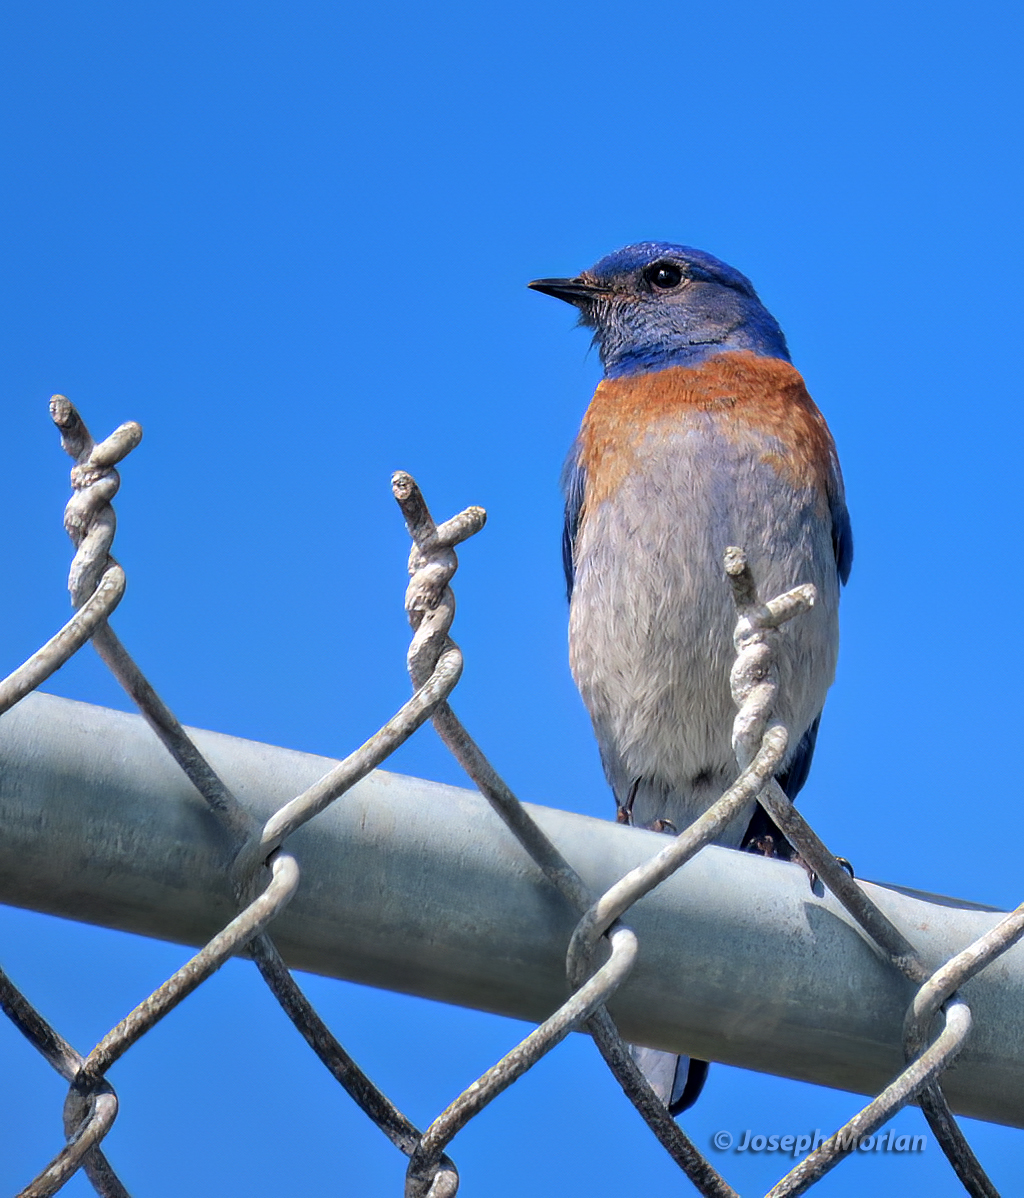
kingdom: Animalia
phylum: Chordata
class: Aves
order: Passeriformes
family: Turdidae
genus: Sialia
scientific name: Sialia mexicana
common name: Western bluebird
